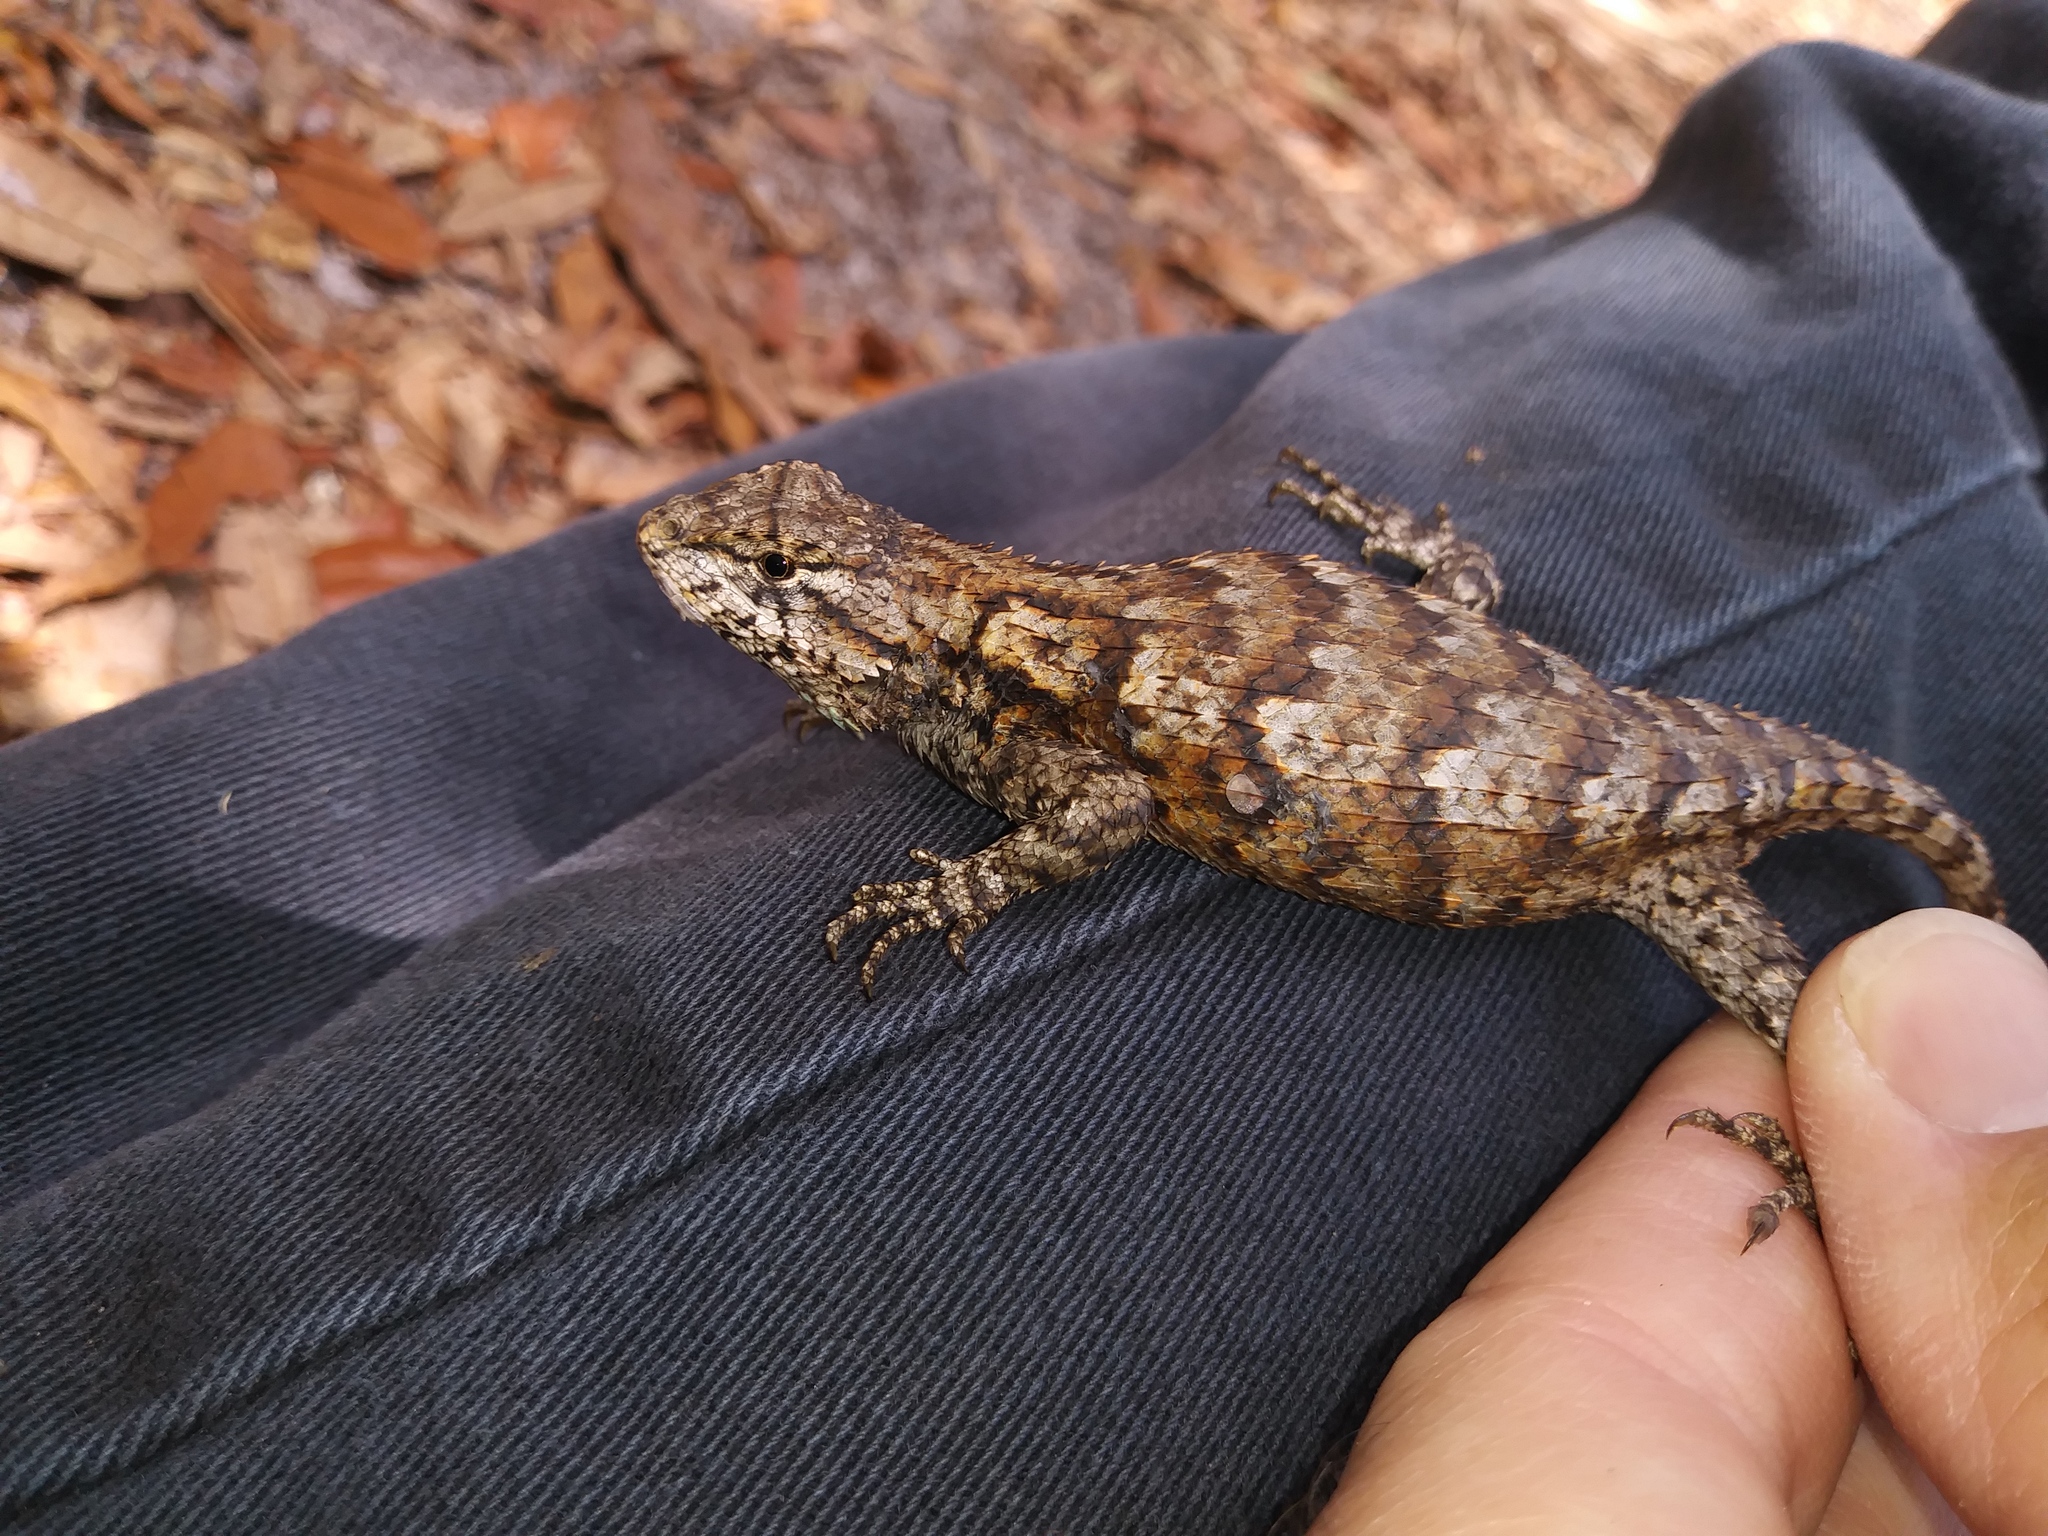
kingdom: Animalia
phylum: Chordata
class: Squamata
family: Phrynosomatidae
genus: Sceloporus
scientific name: Sceloporus undulatus
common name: Eastern fence lizard
